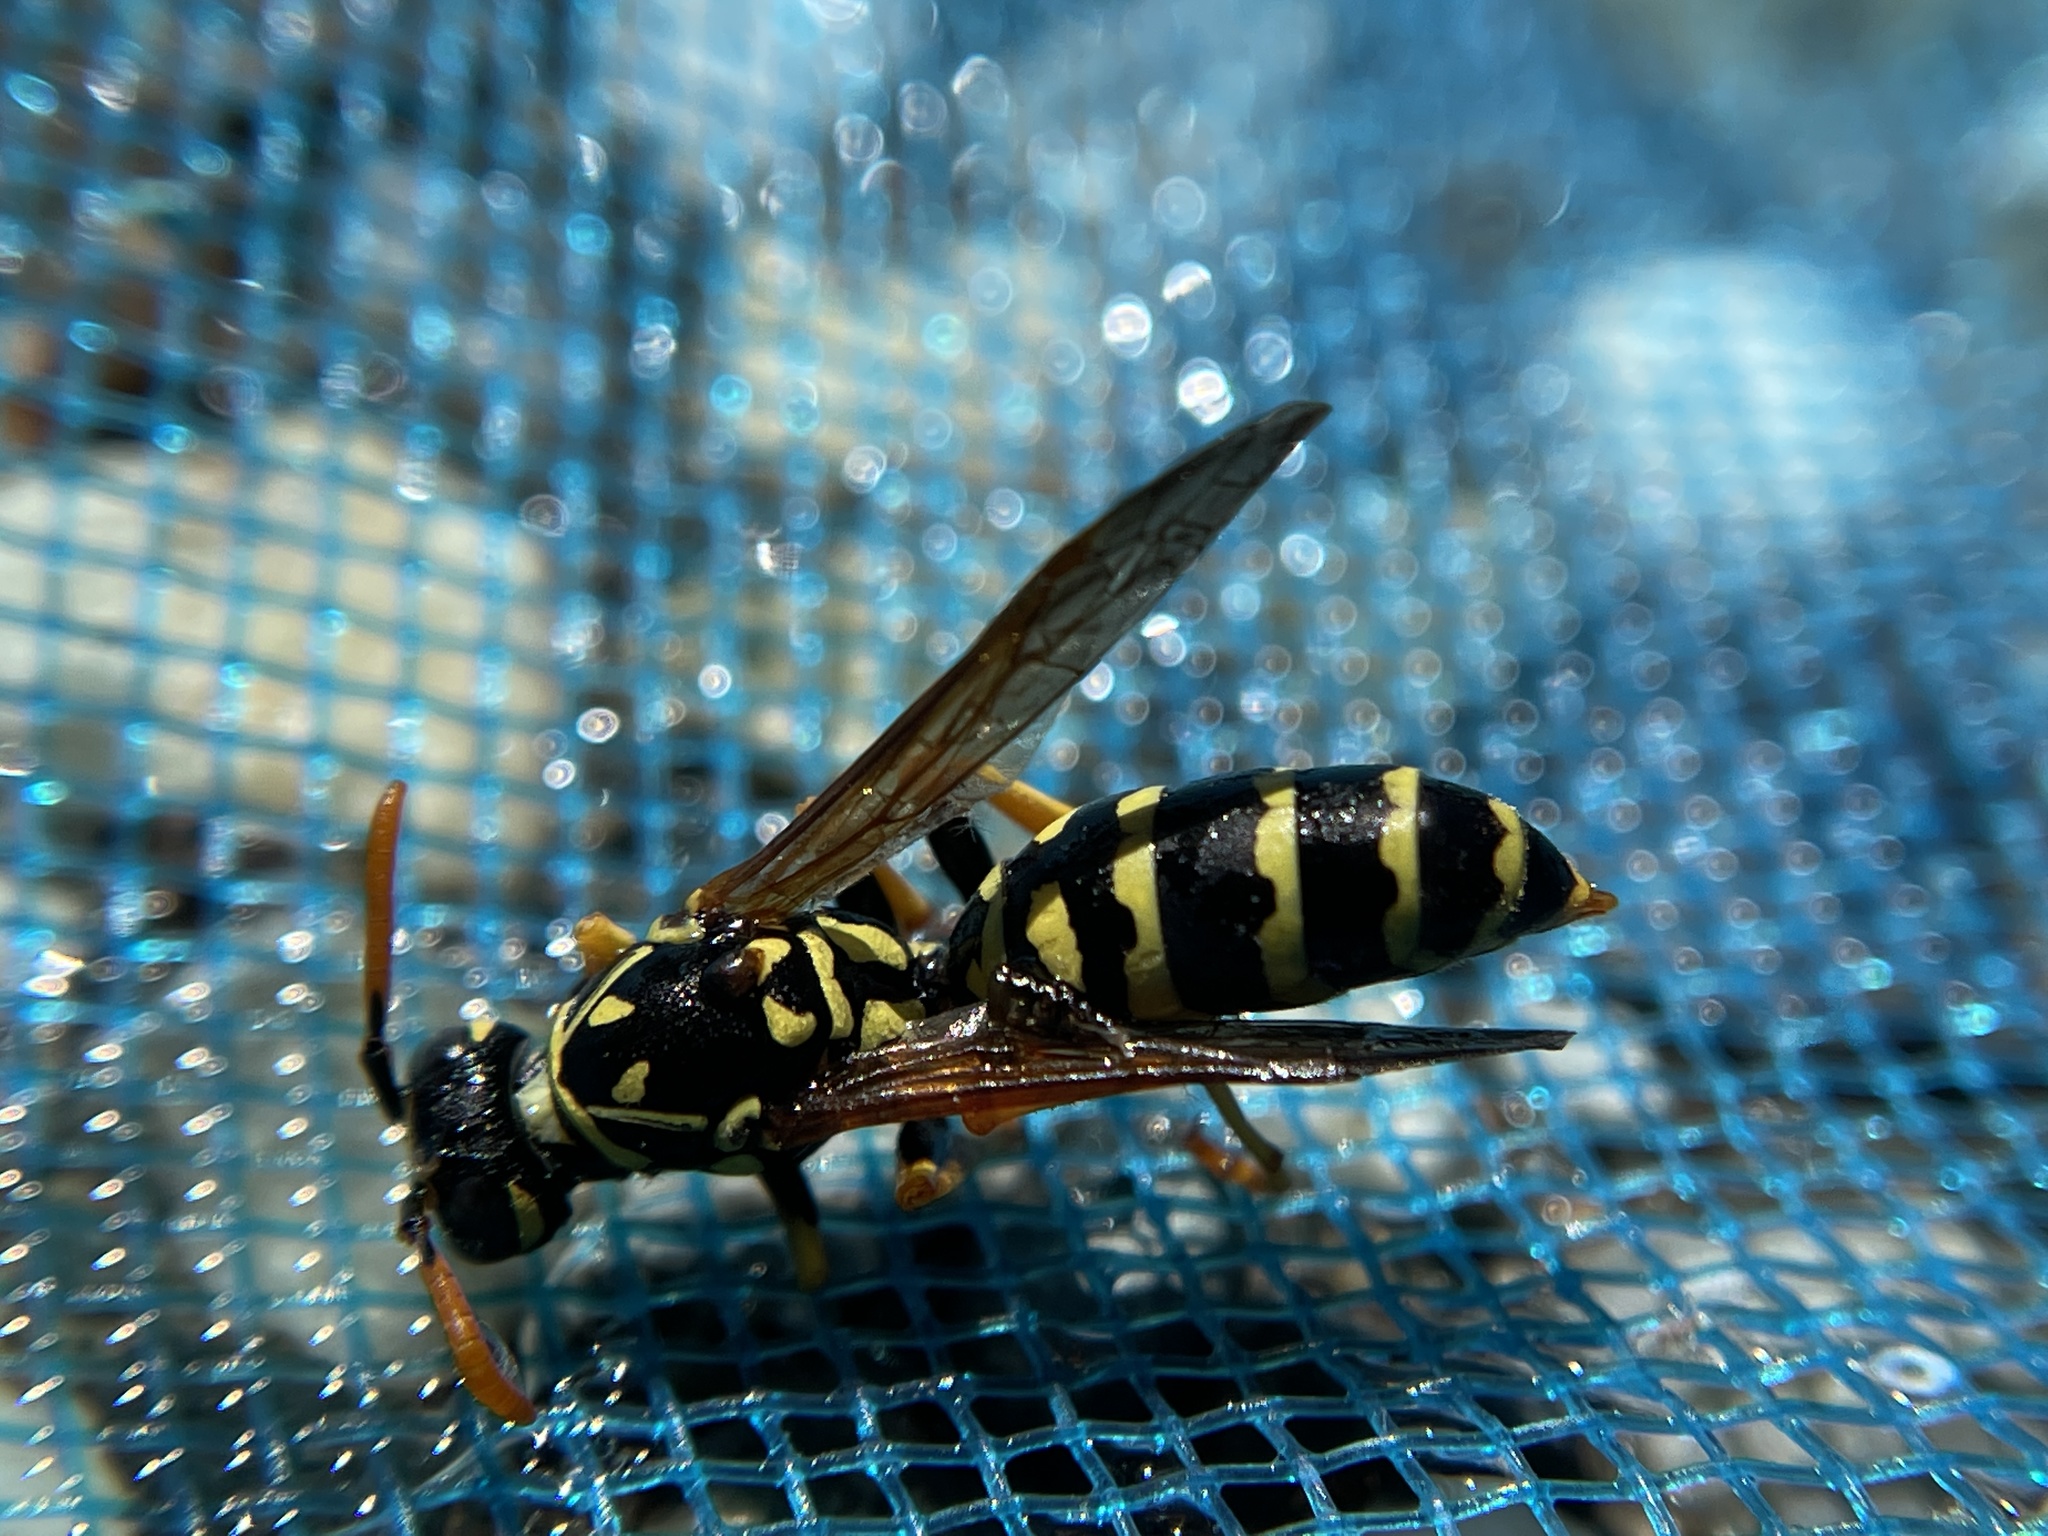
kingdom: Animalia
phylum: Arthropoda
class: Insecta
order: Hymenoptera
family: Eumenidae
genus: Polistes
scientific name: Polistes dominula
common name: Paper wasp
